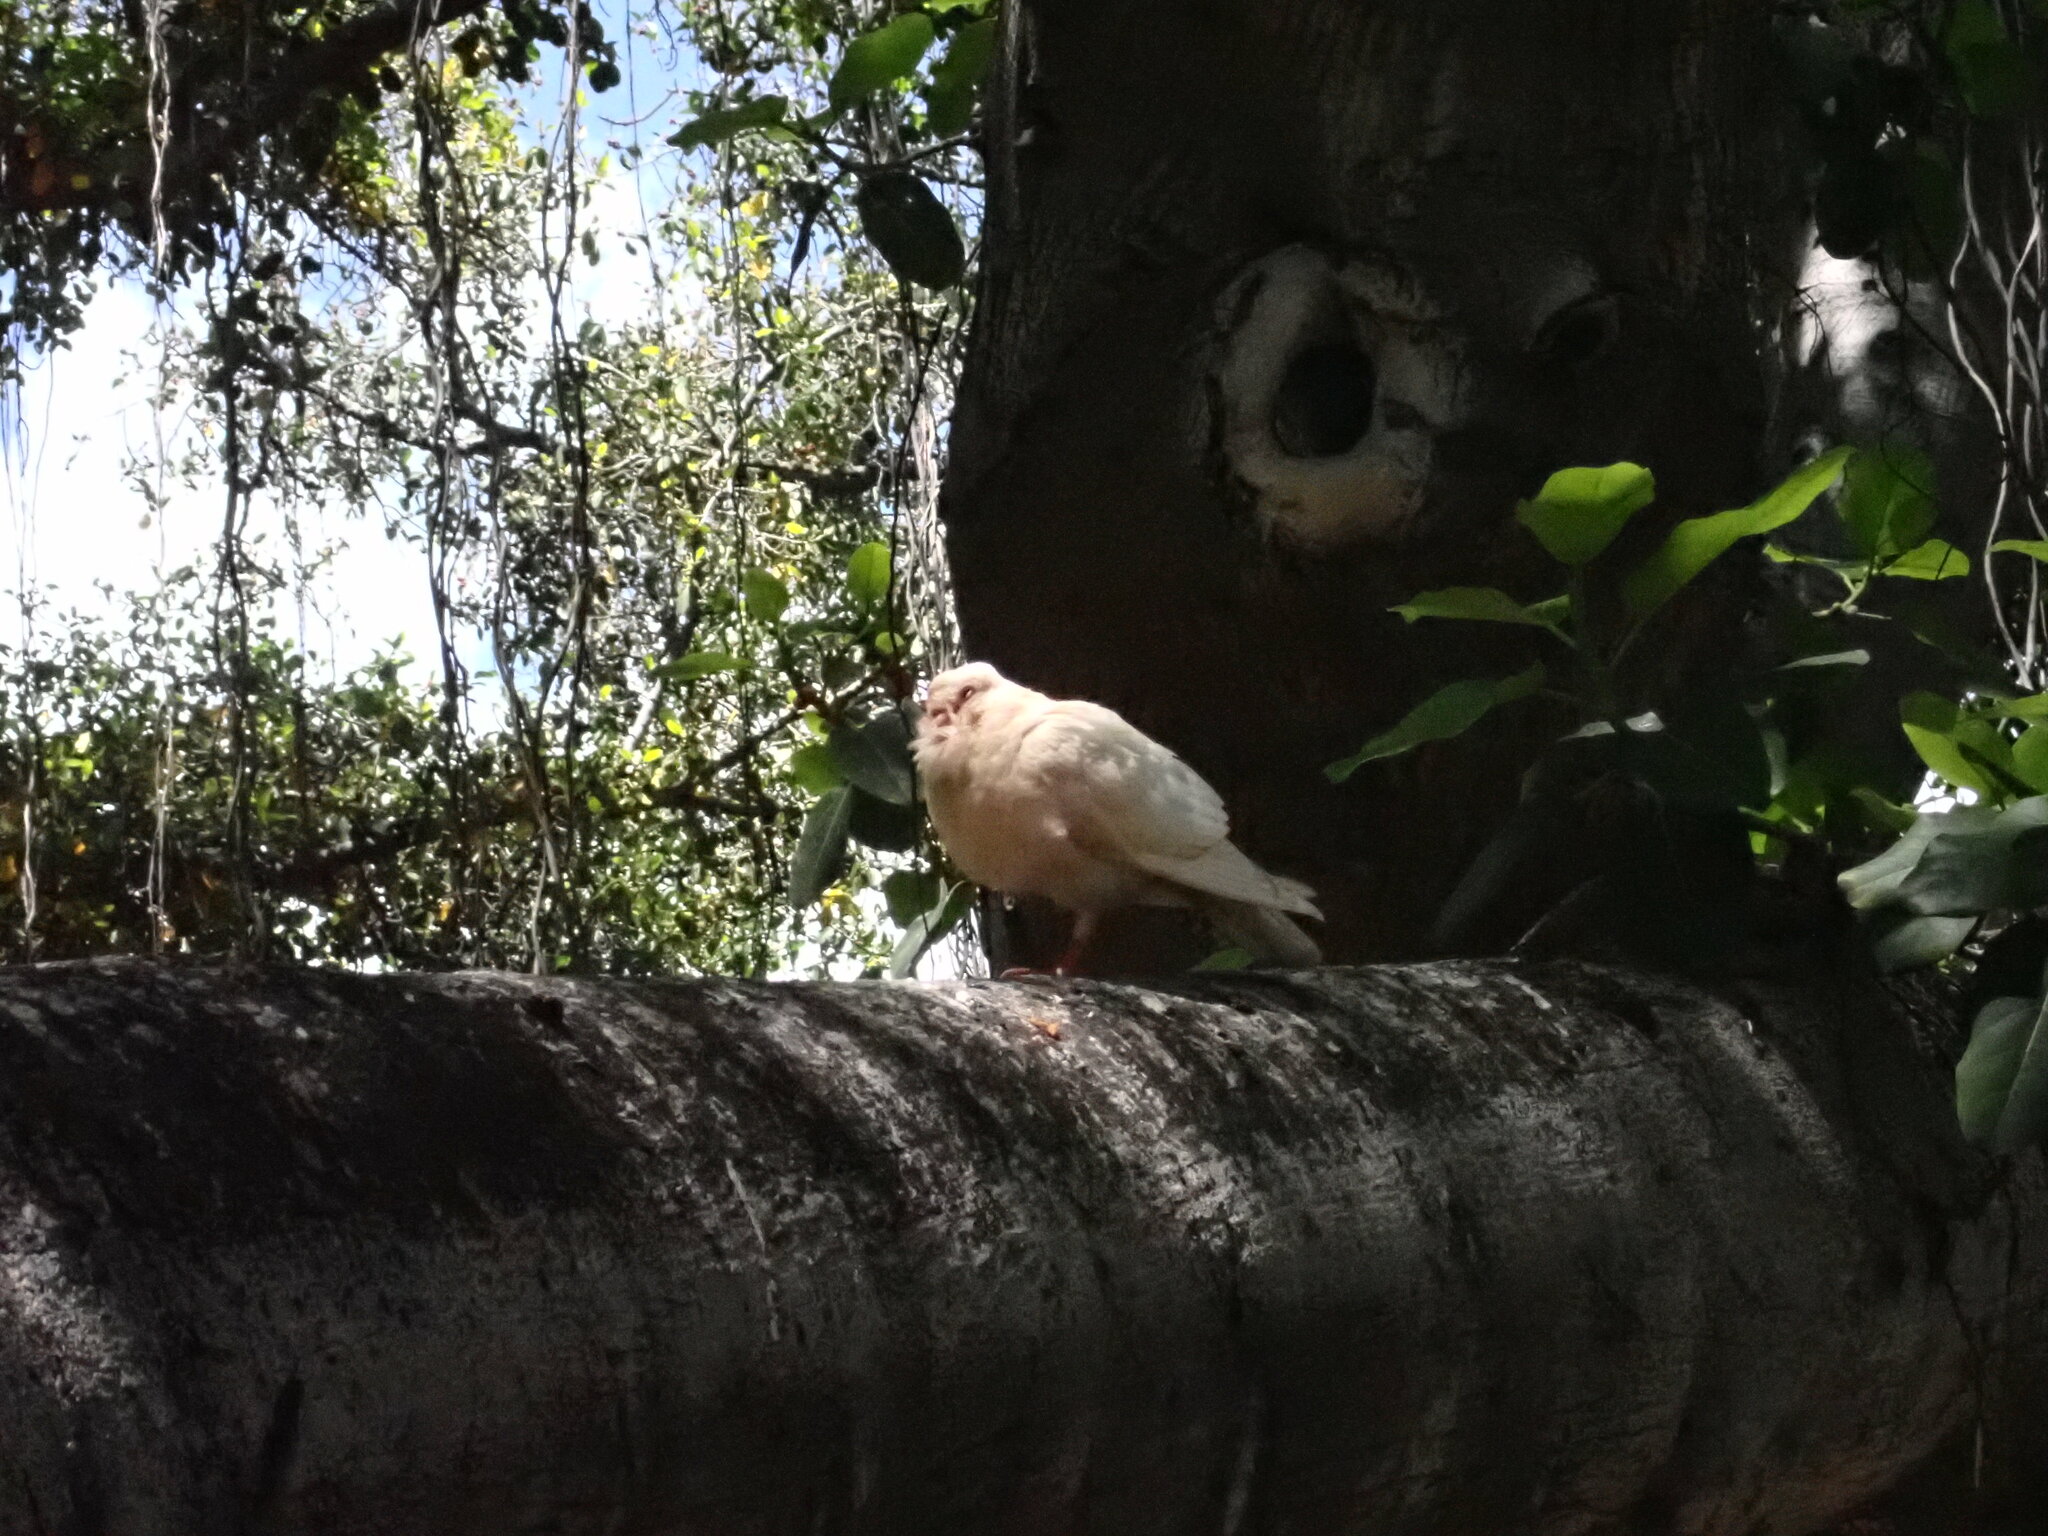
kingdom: Animalia
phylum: Chordata
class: Aves
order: Columbiformes
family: Columbidae
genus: Columba
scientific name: Columba livia
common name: Rock pigeon
